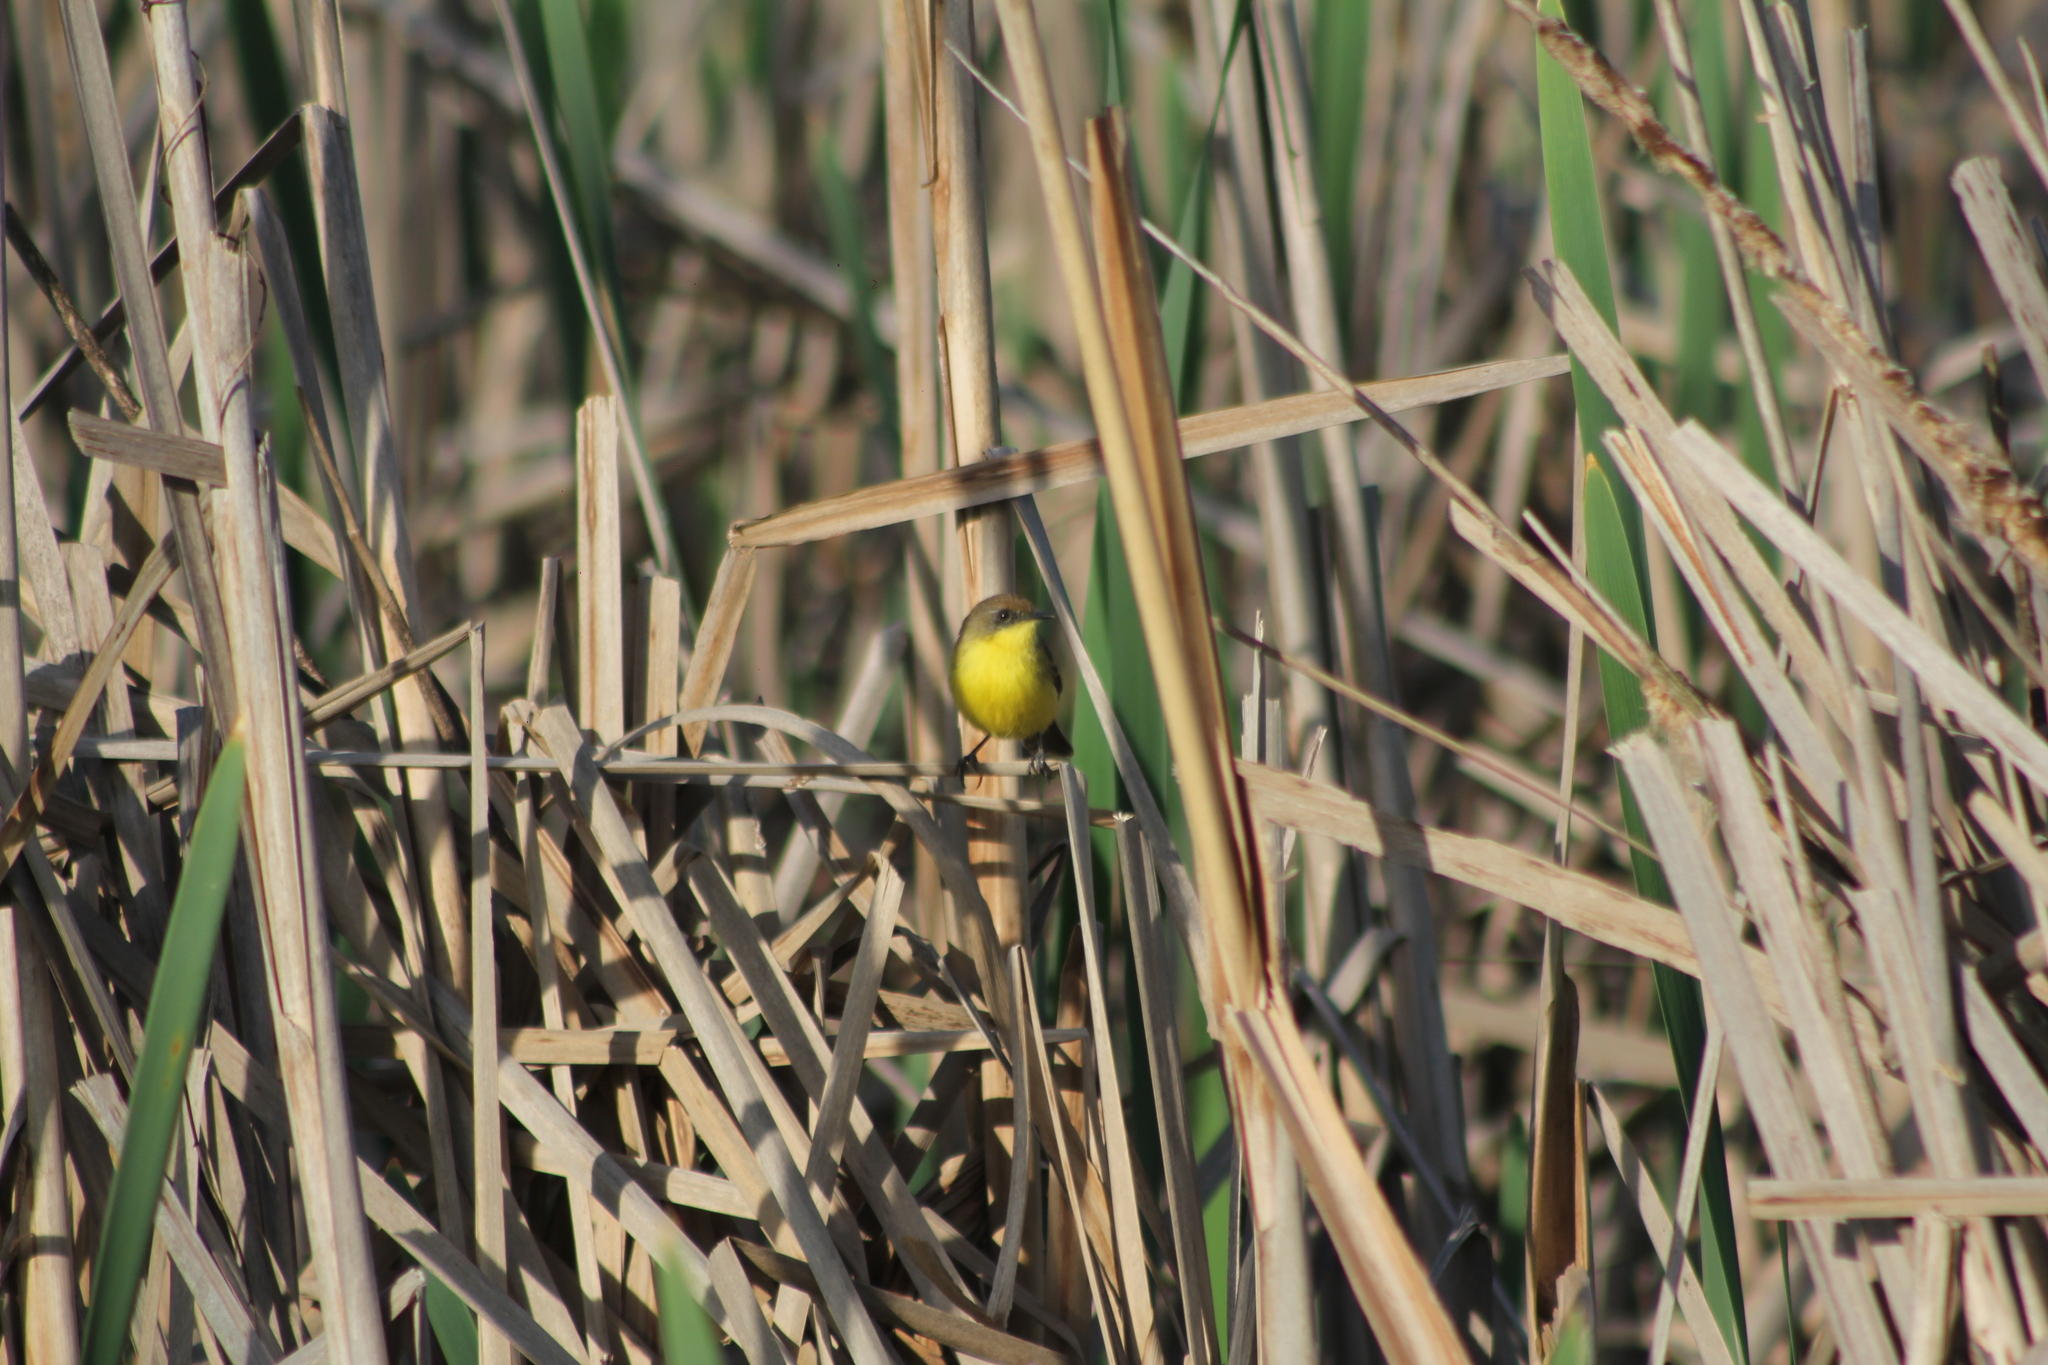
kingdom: Animalia
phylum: Chordata
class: Aves
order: Passeriformes
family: Tyrannidae
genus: Pseudocolopteryx
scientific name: Pseudocolopteryx flaviventris
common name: Warbling doradito
